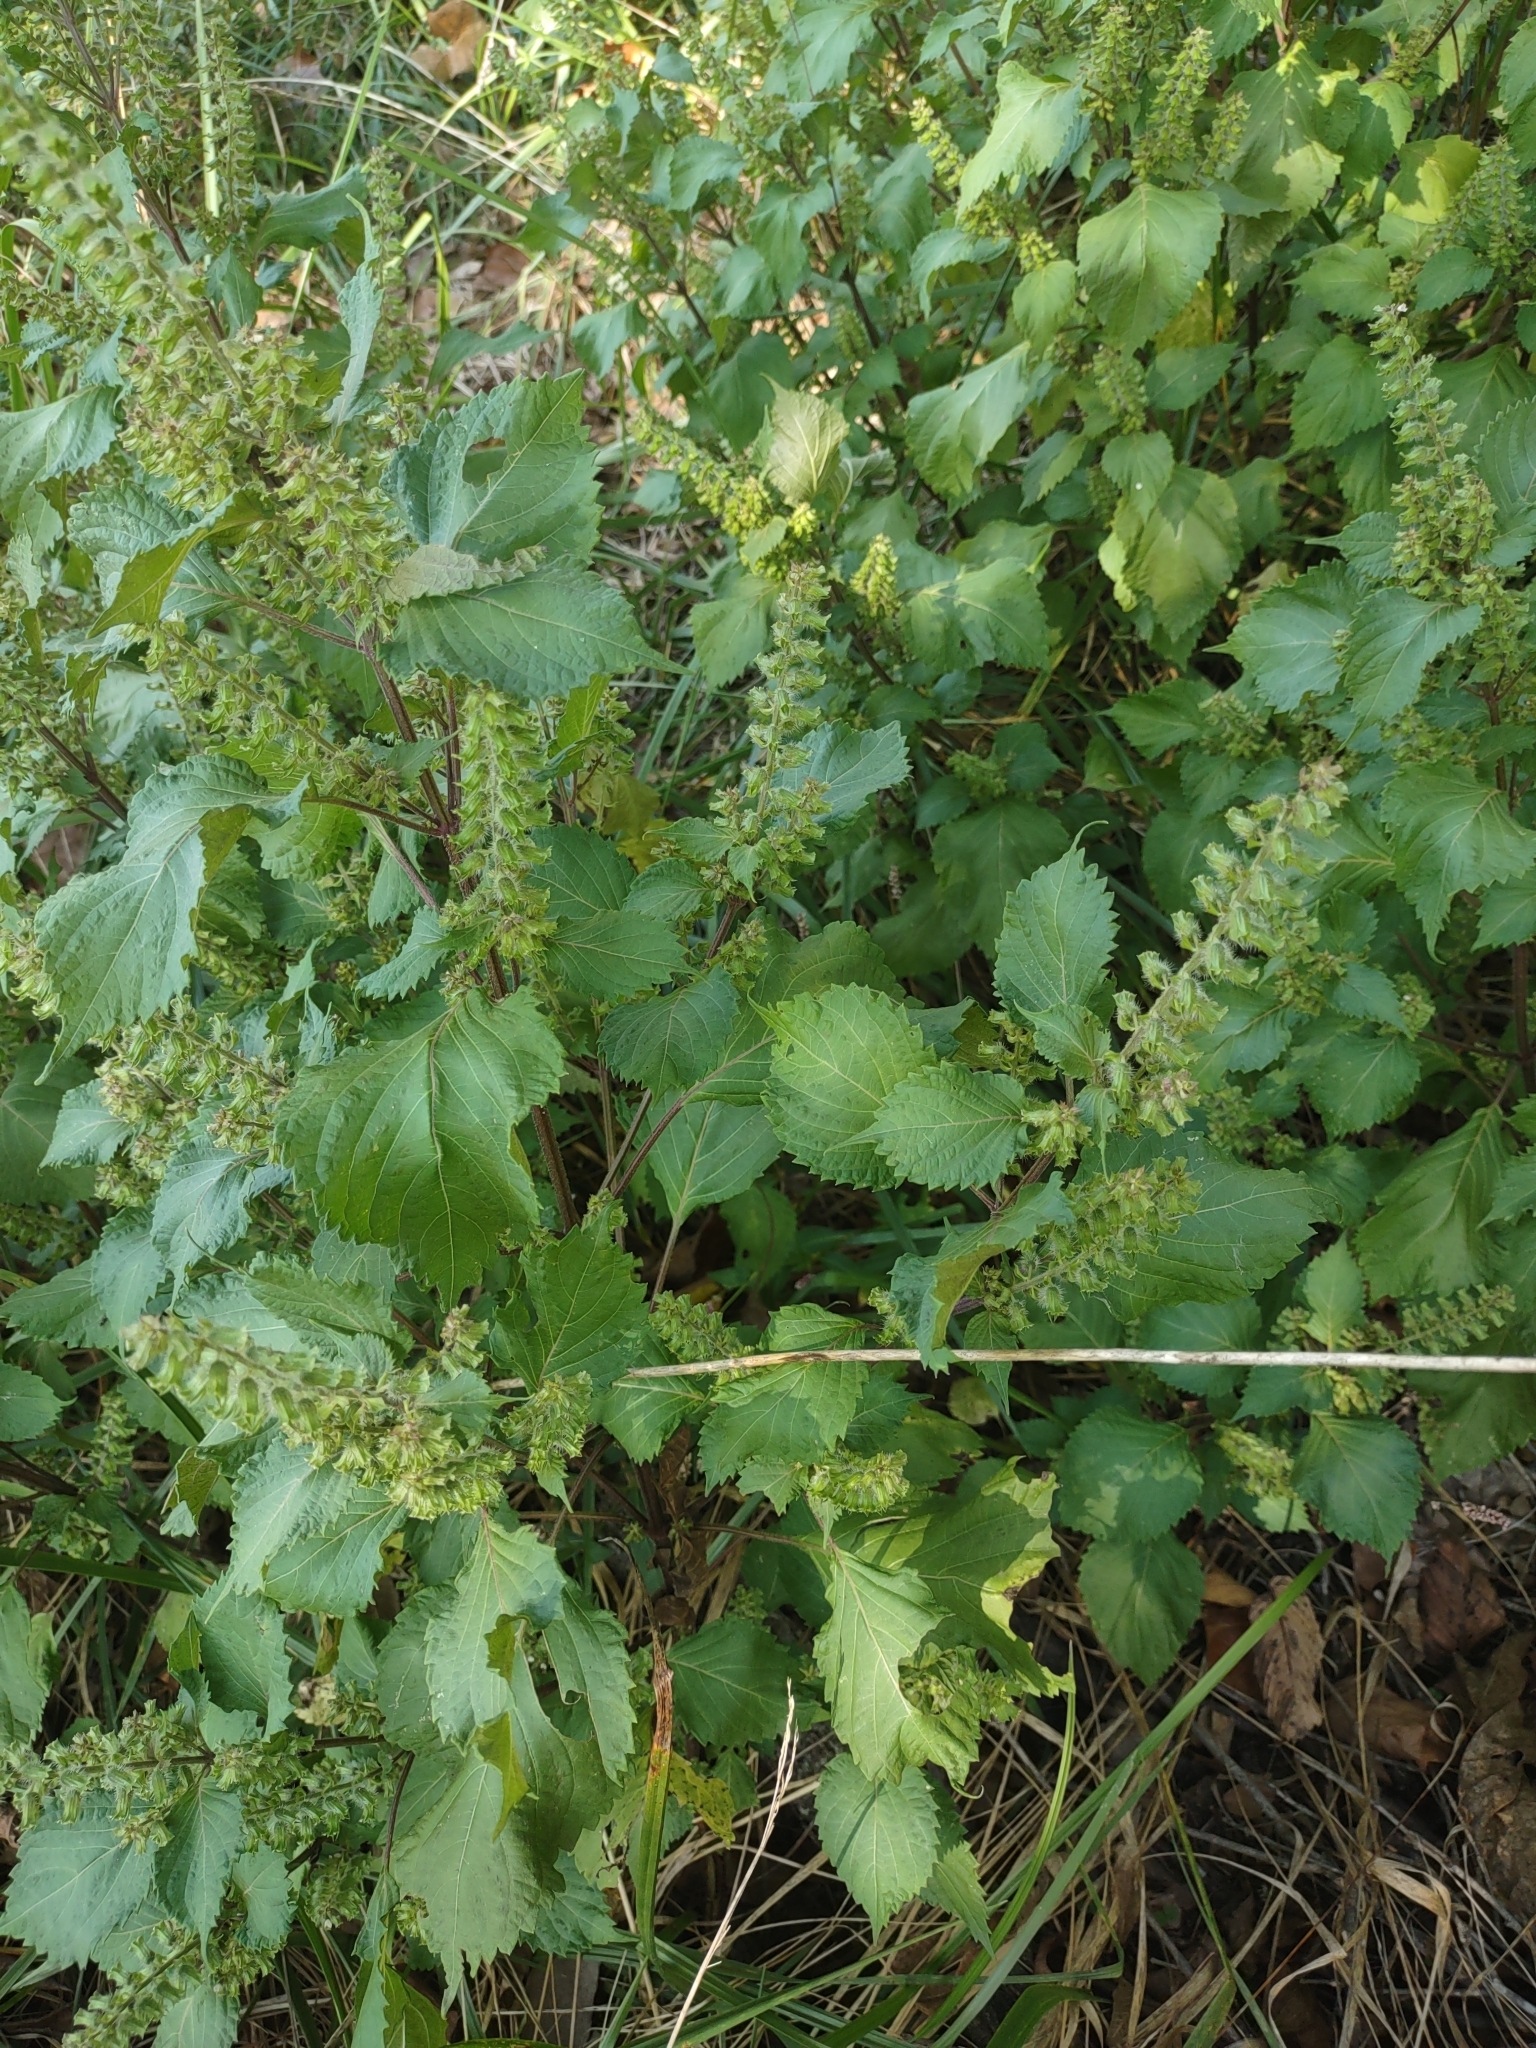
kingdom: Plantae
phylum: Tracheophyta
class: Magnoliopsida
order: Lamiales
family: Lamiaceae
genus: Perilla
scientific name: Perilla frutescens
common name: Perilla
